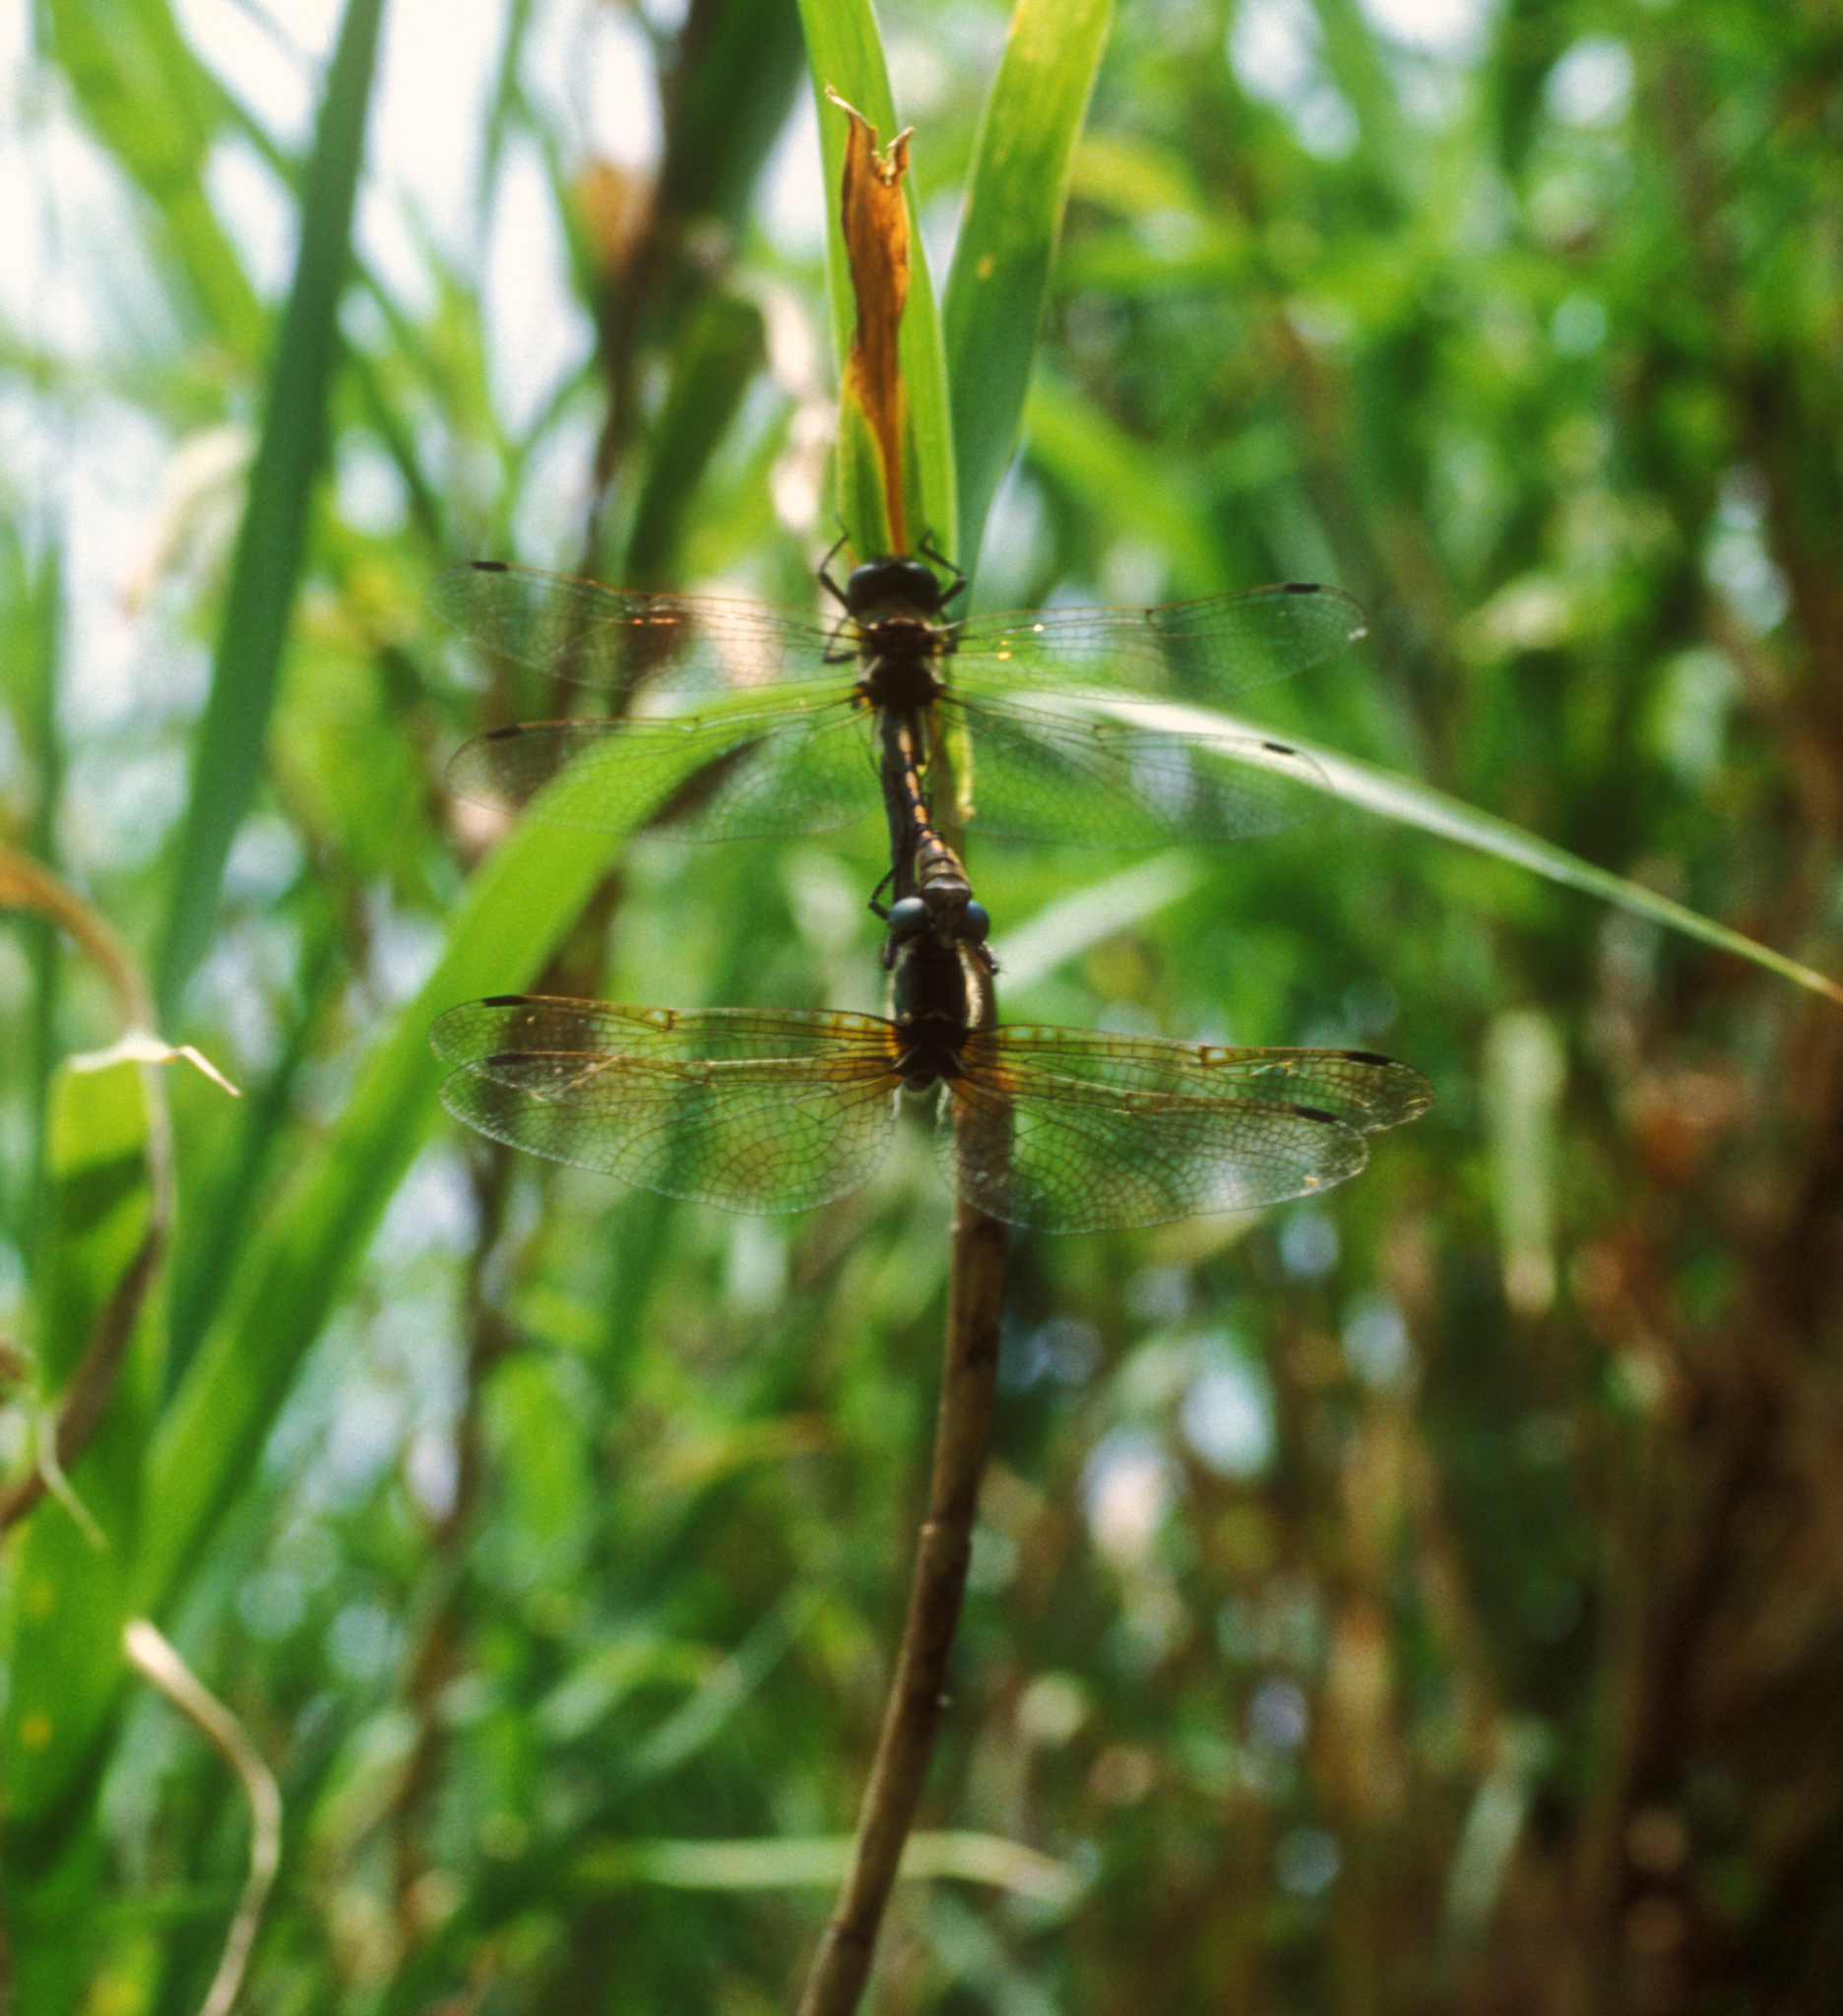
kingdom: Animalia
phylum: Arthropoda
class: Insecta
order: Odonata
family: Corduliidae
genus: Oxygastra
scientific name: Oxygastra curtisii
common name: Orange-spotted emerald
